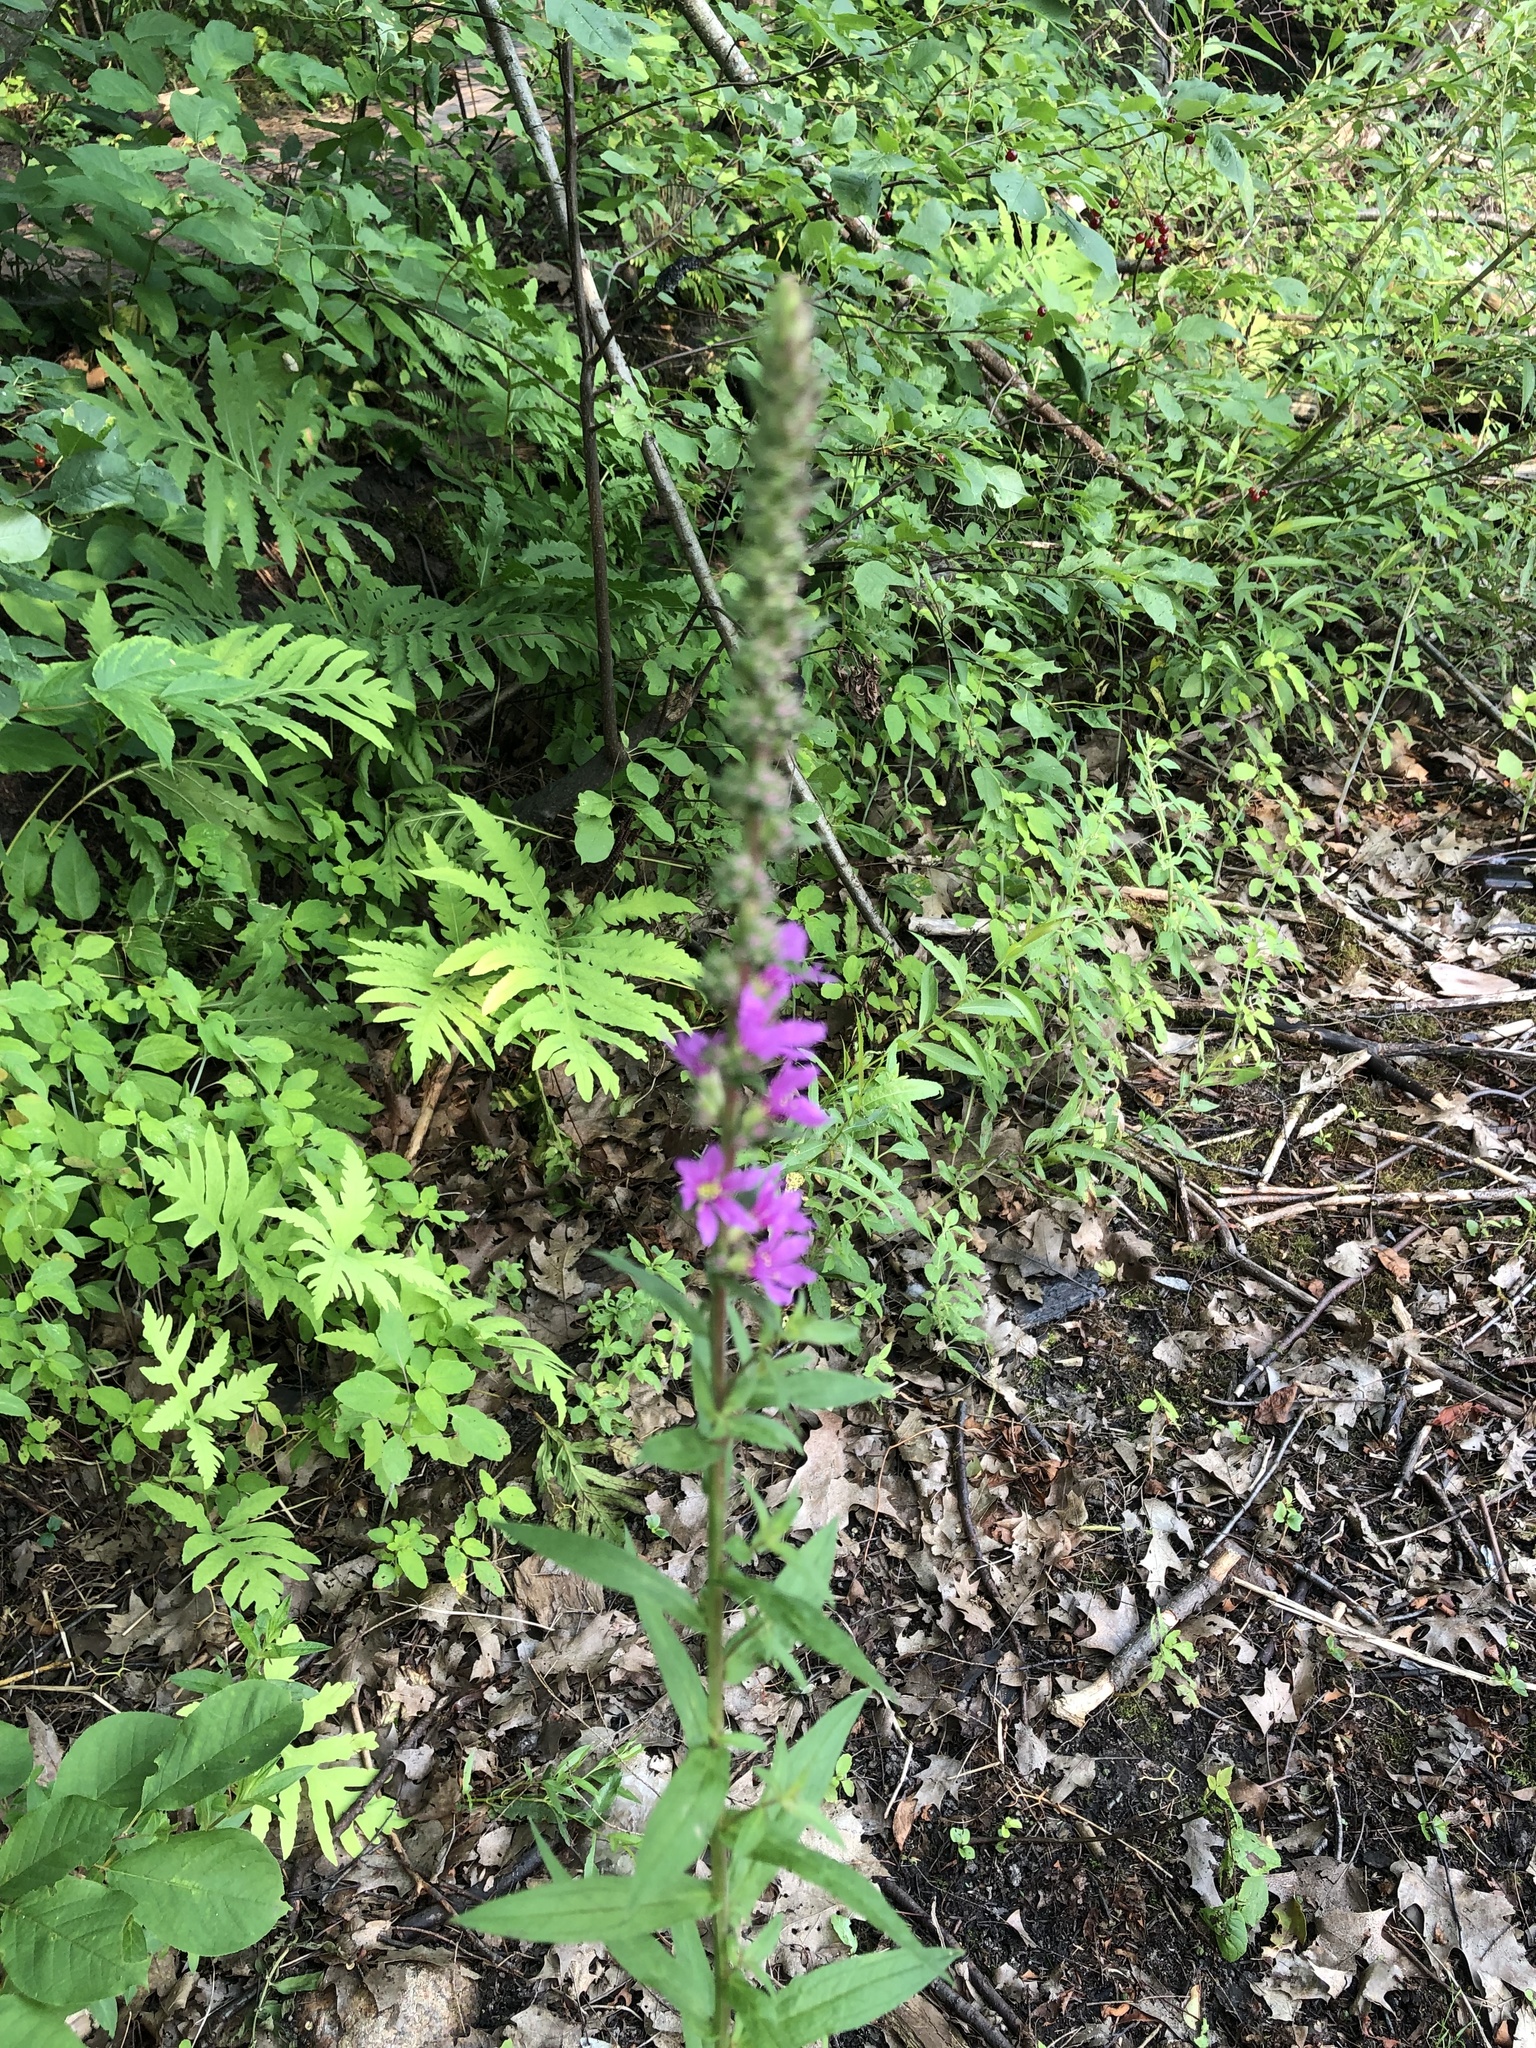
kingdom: Plantae
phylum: Tracheophyta
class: Magnoliopsida
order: Myrtales
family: Lythraceae
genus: Lythrum
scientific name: Lythrum salicaria
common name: Purple loosestrife
